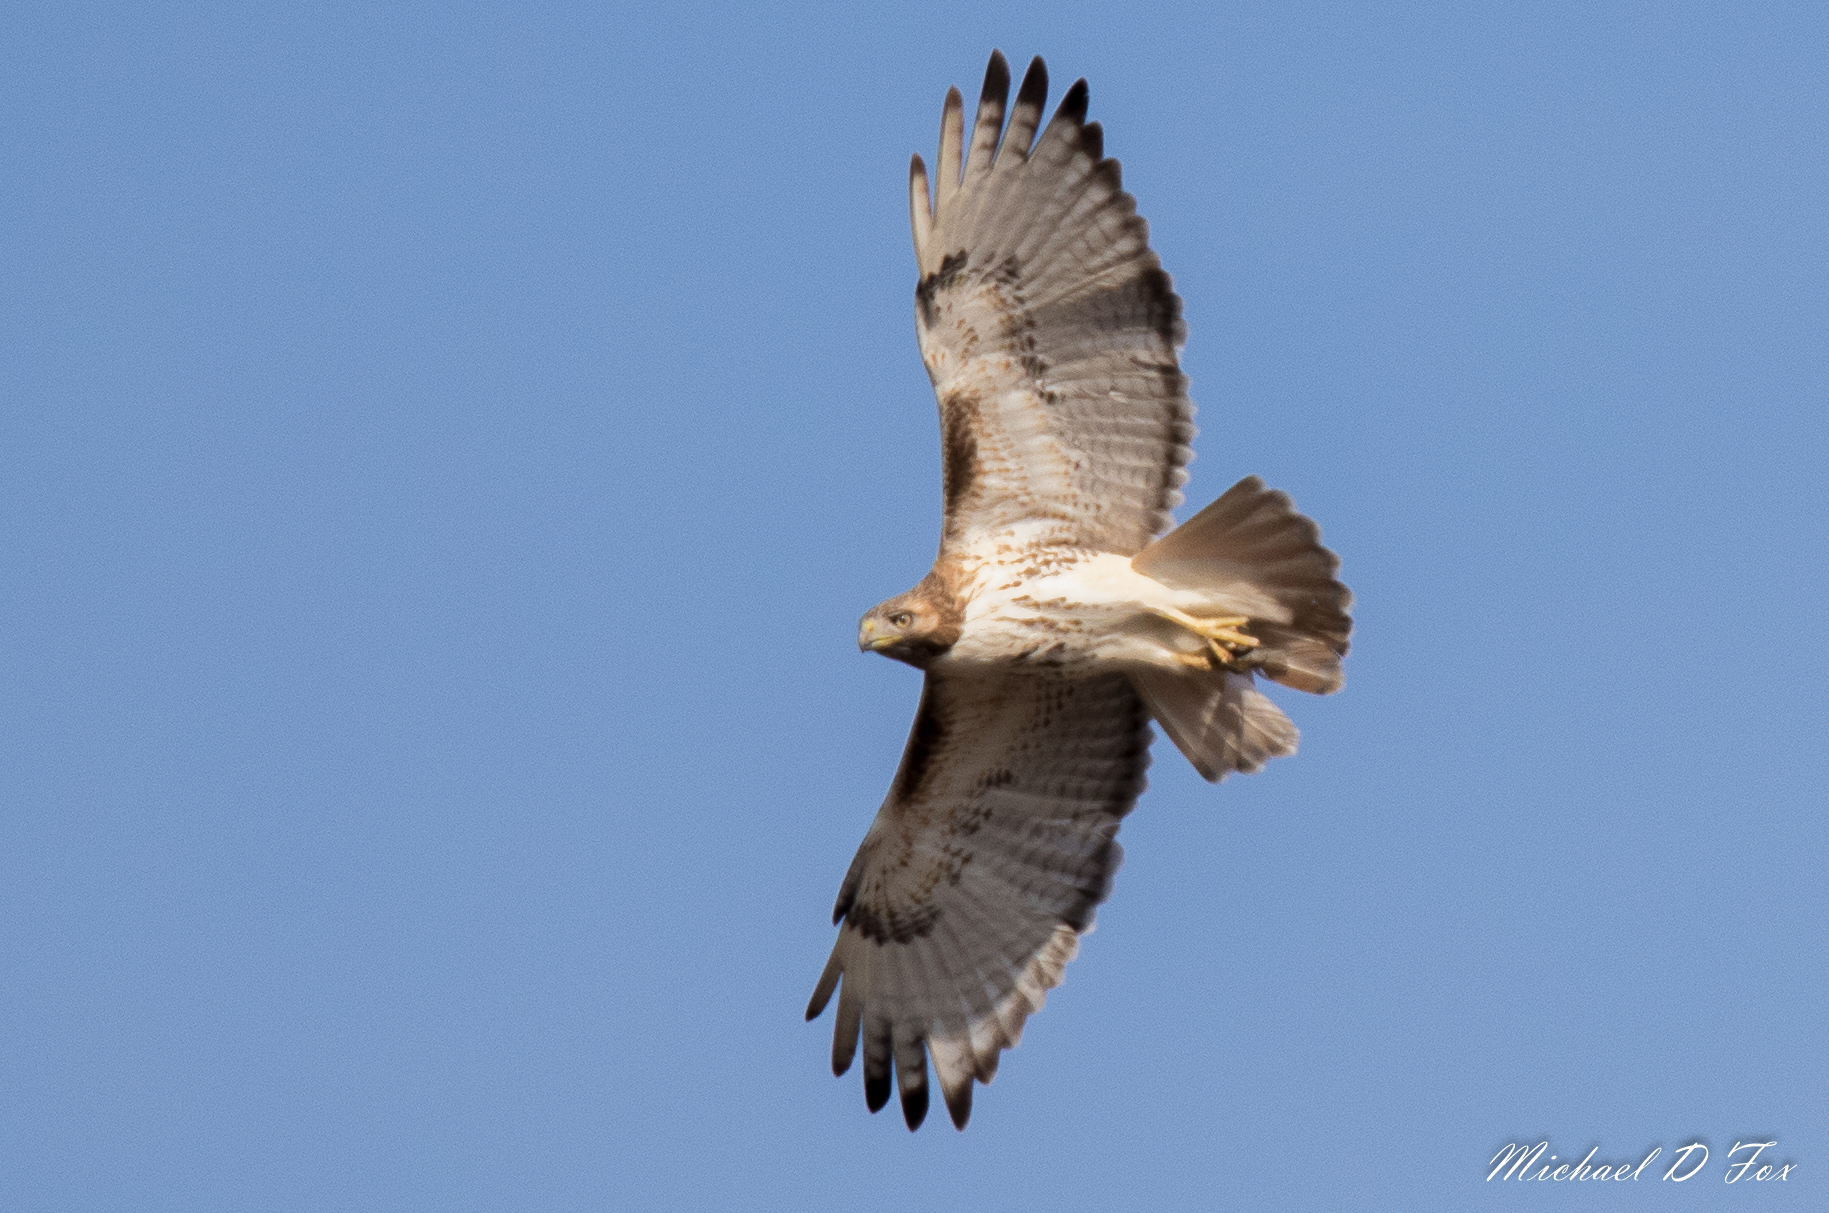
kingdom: Animalia
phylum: Chordata
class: Aves
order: Accipitriformes
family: Accipitridae
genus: Buteo
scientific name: Buteo jamaicensis
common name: Red-tailed hawk
